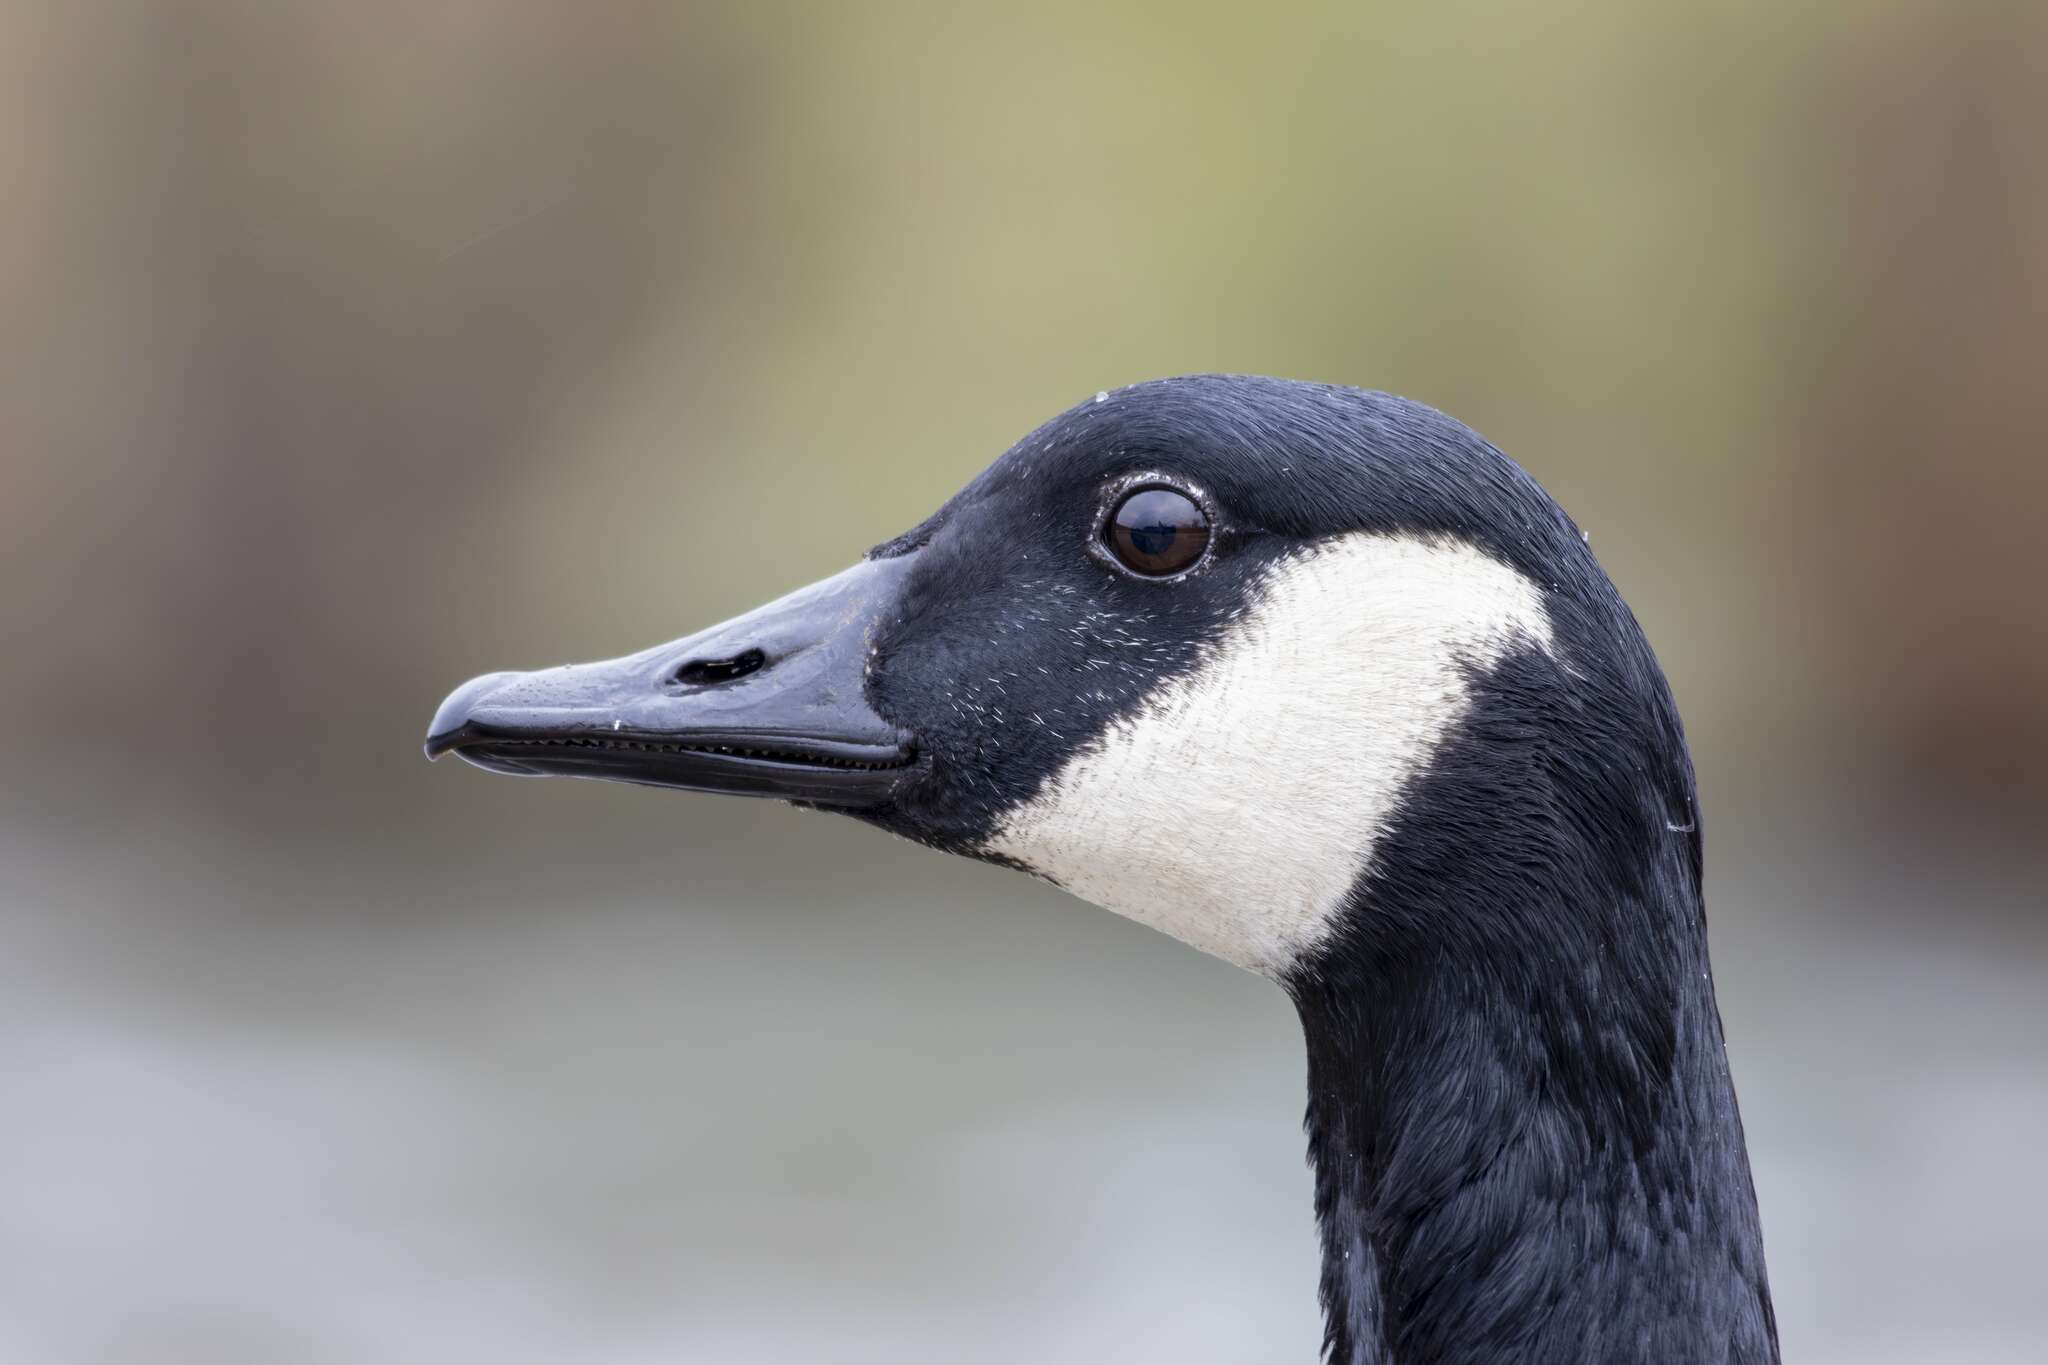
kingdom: Animalia
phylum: Chordata
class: Aves
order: Anseriformes
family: Anatidae
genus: Branta
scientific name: Branta canadensis
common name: Canada goose
